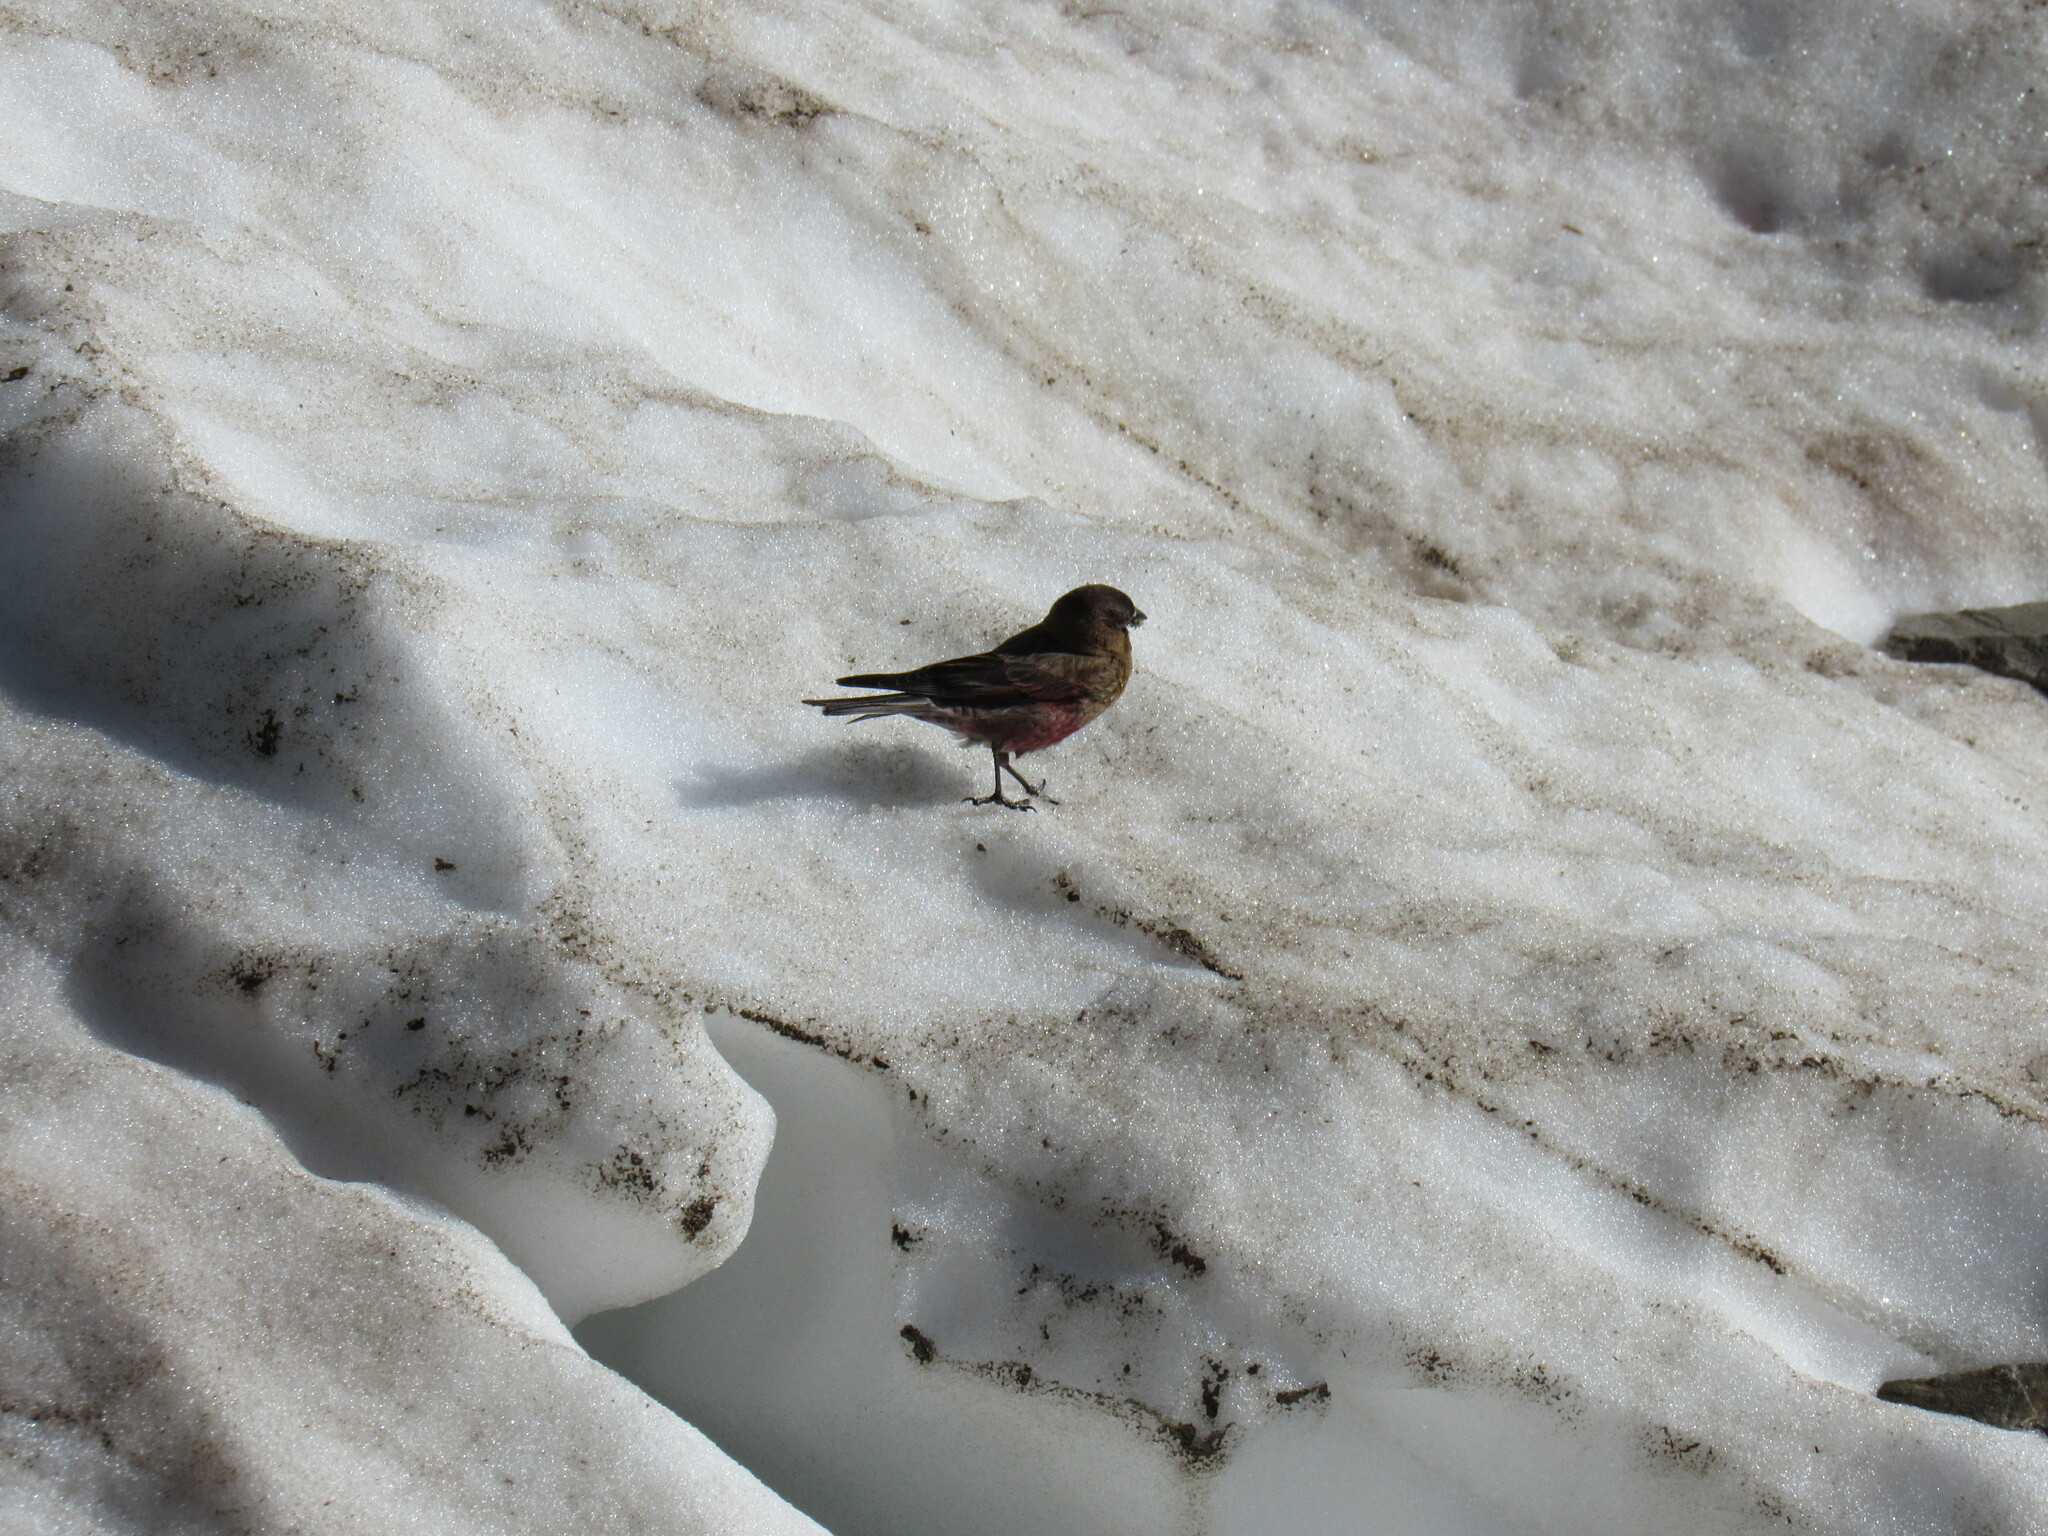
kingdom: Animalia
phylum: Chordata
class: Aves
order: Passeriformes
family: Fringillidae
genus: Leucosticte
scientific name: Leucosticte australis
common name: Brown-capped rosy-finch
